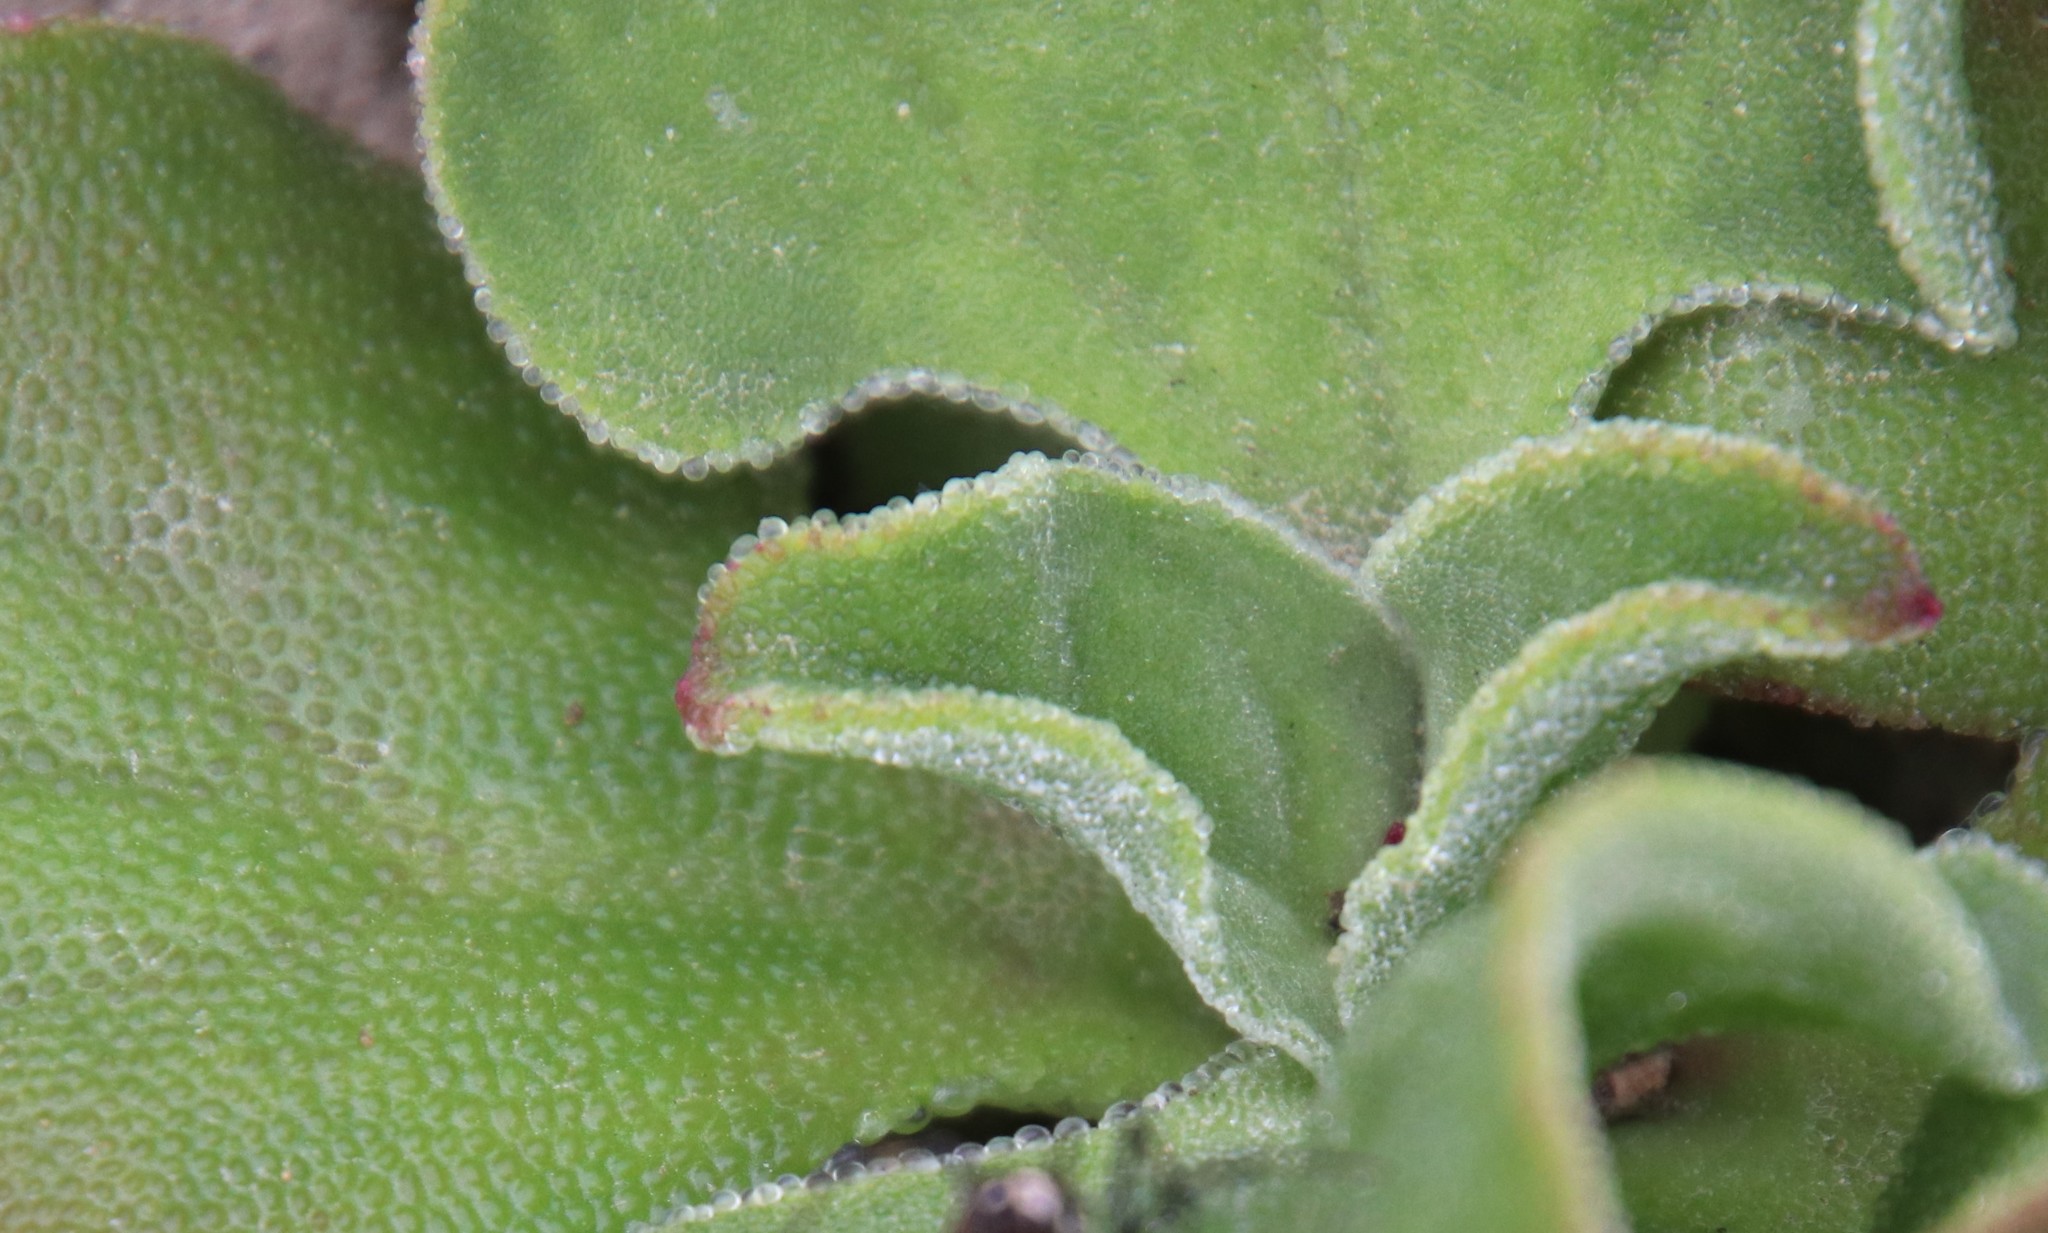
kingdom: Plantae
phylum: Tracheophyta
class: Magnoliopsida
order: Caryophyllales
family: Aizoaceae
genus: Mesembryanthemum
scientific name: Mesembryanthemum crystallinum
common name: Common iceplant
